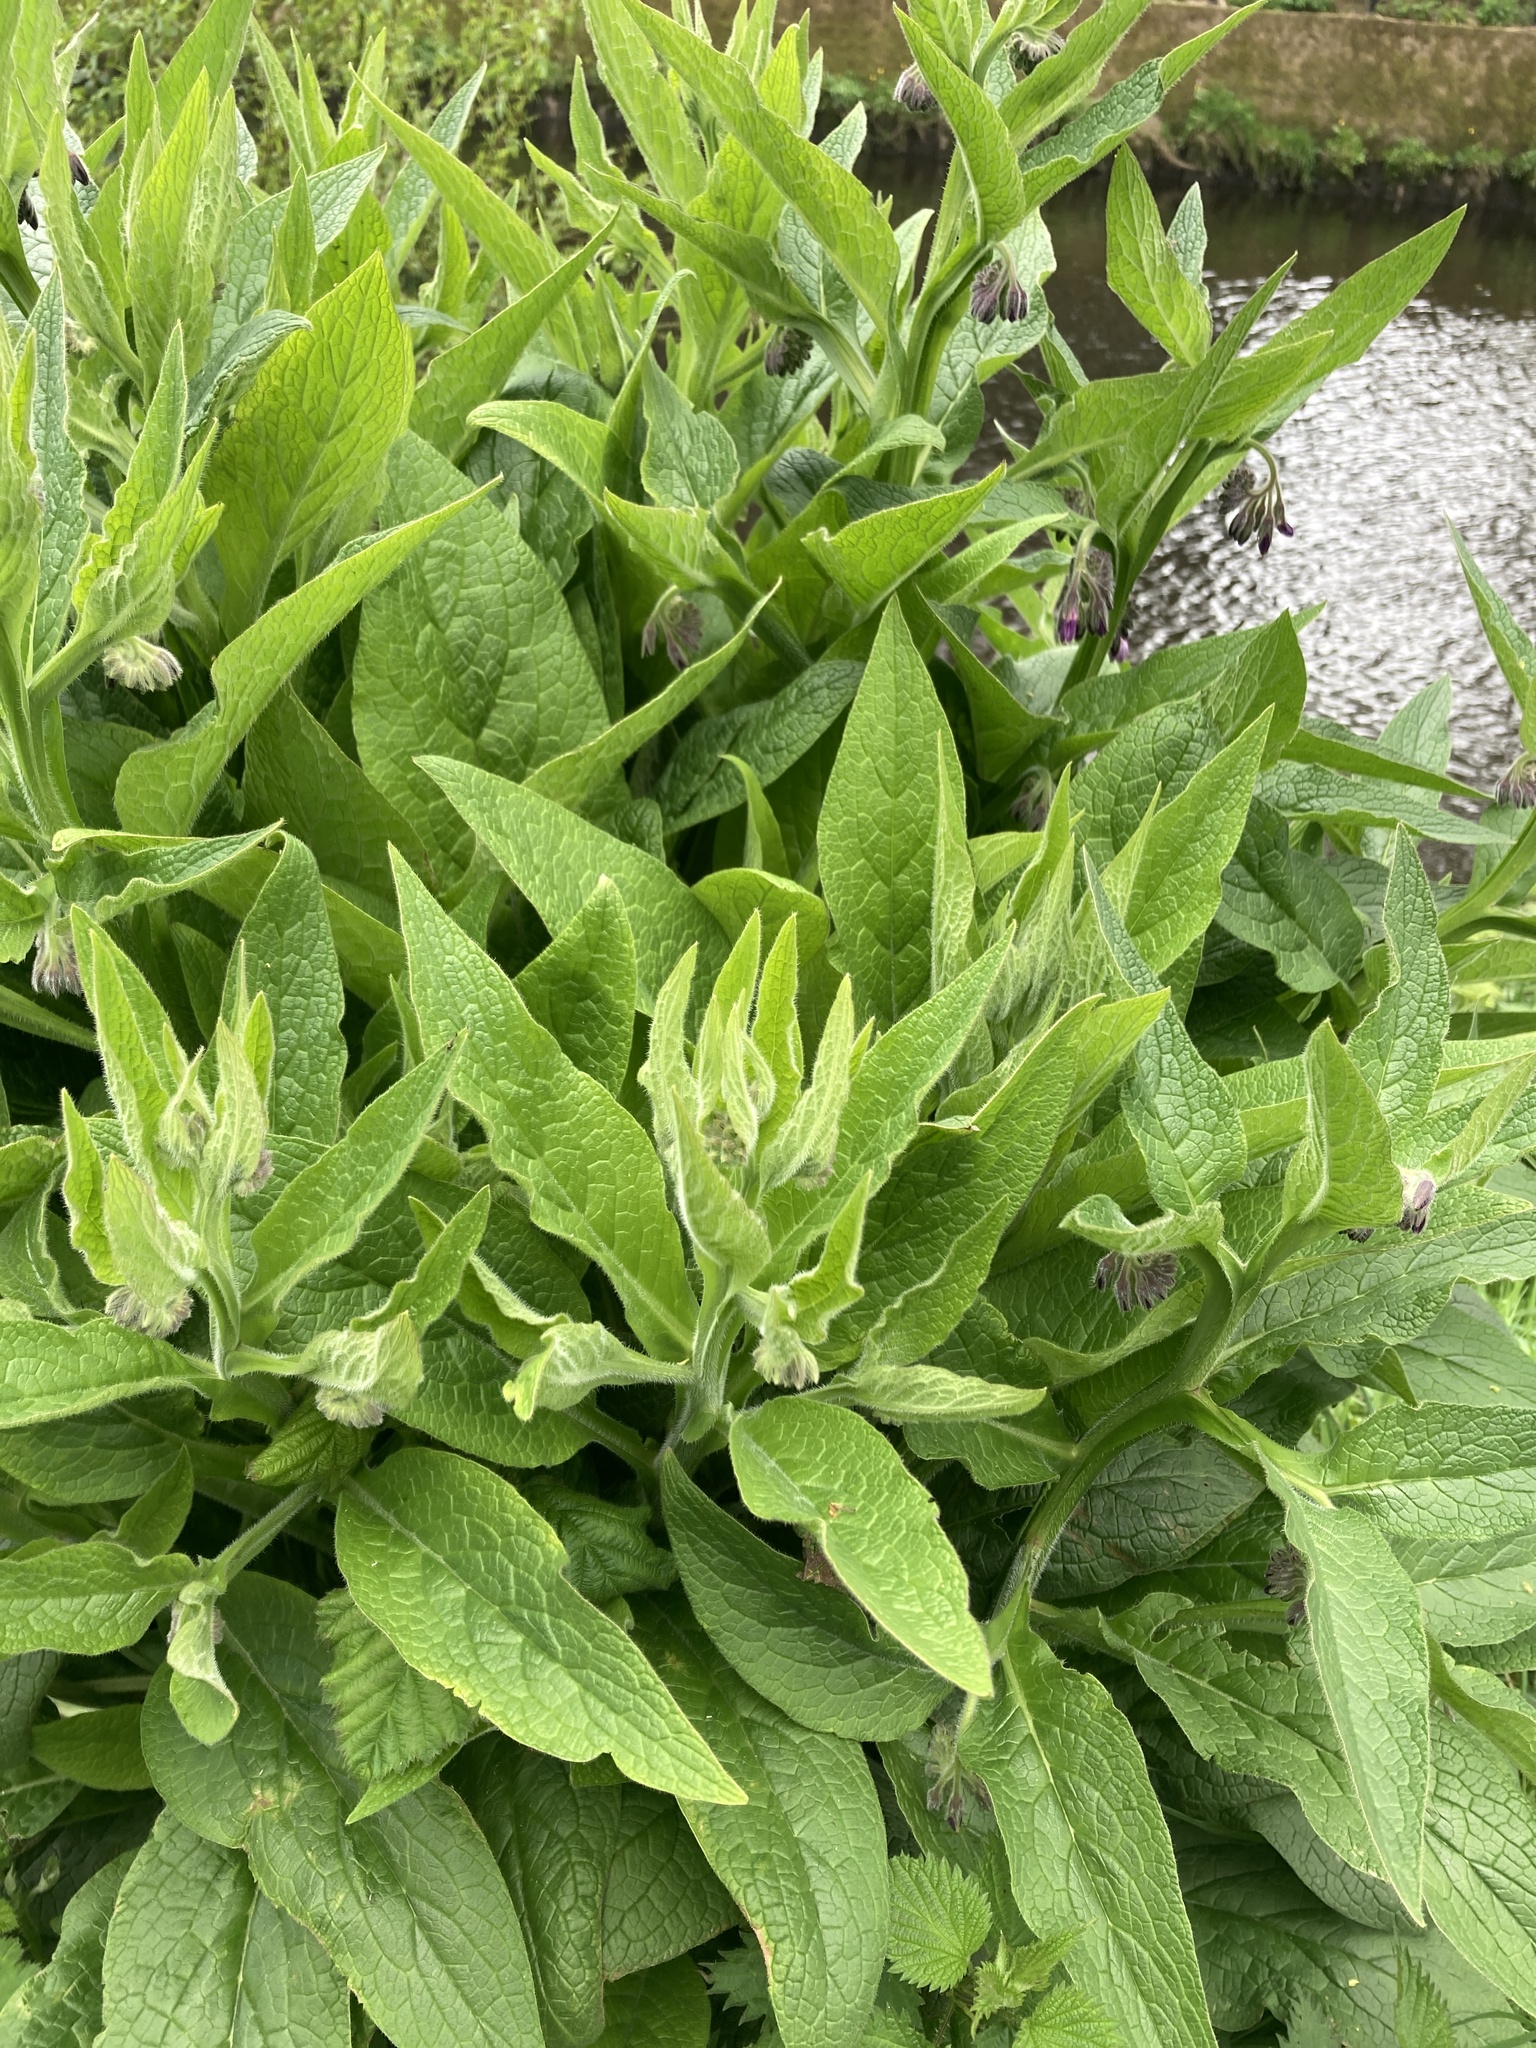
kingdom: Plantae
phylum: Tracheophyta
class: Magnoliopsida
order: Boraginales
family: Boraginaceae
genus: Symphytum
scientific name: Symphytum officinale
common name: Common comfrey
